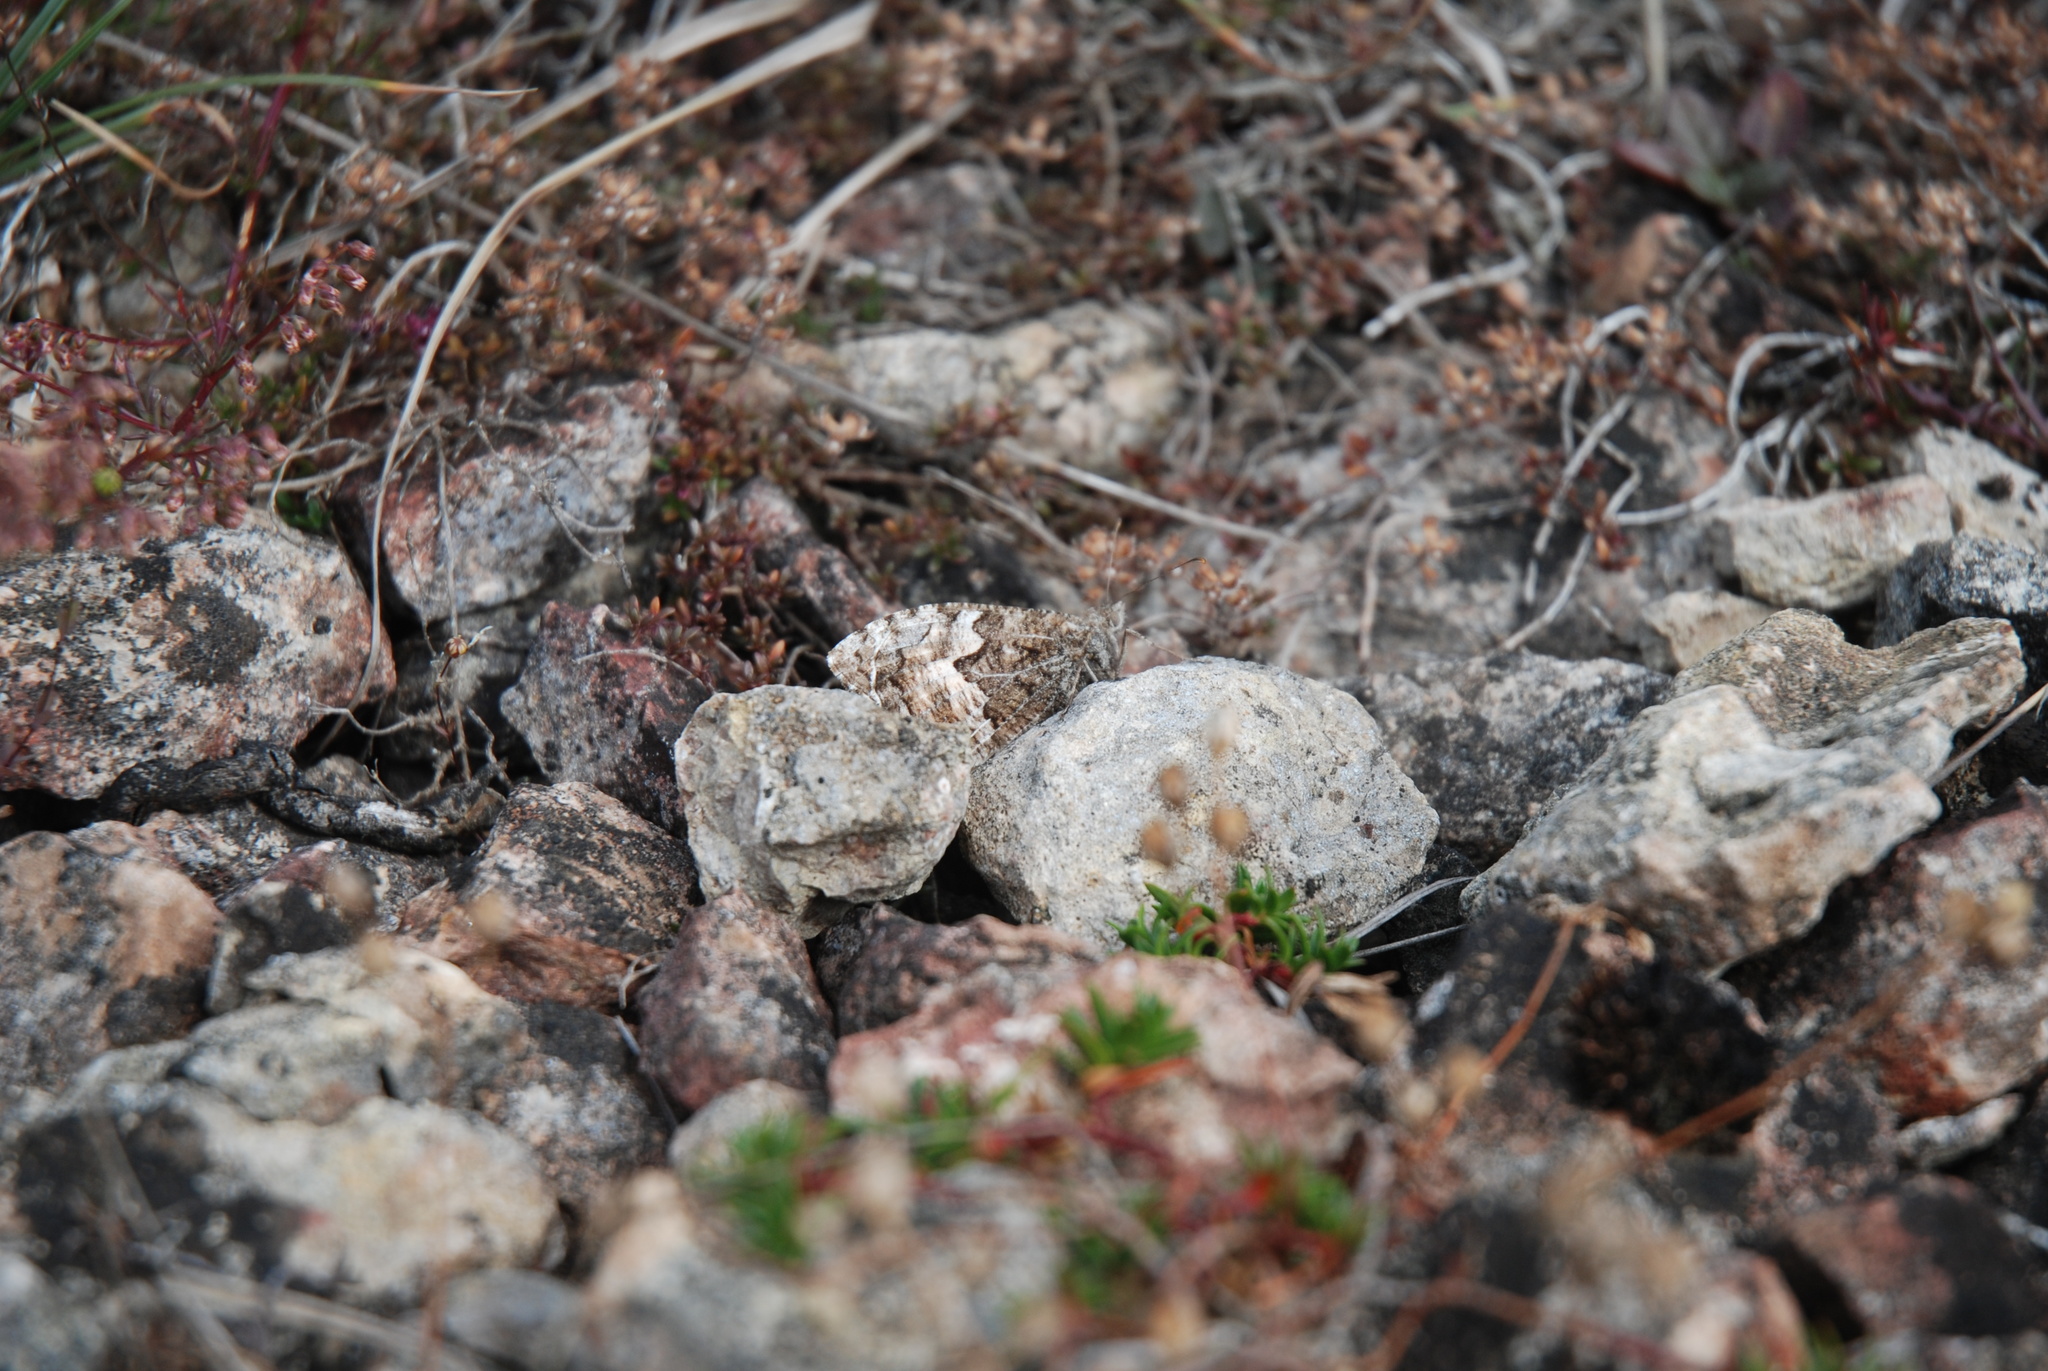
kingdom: Animalia
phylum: Arthropoda
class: Insecta
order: Lepidoptera
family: Nymphalidae
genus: Hipparchia
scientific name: Hipparchia semele
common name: Grayling
